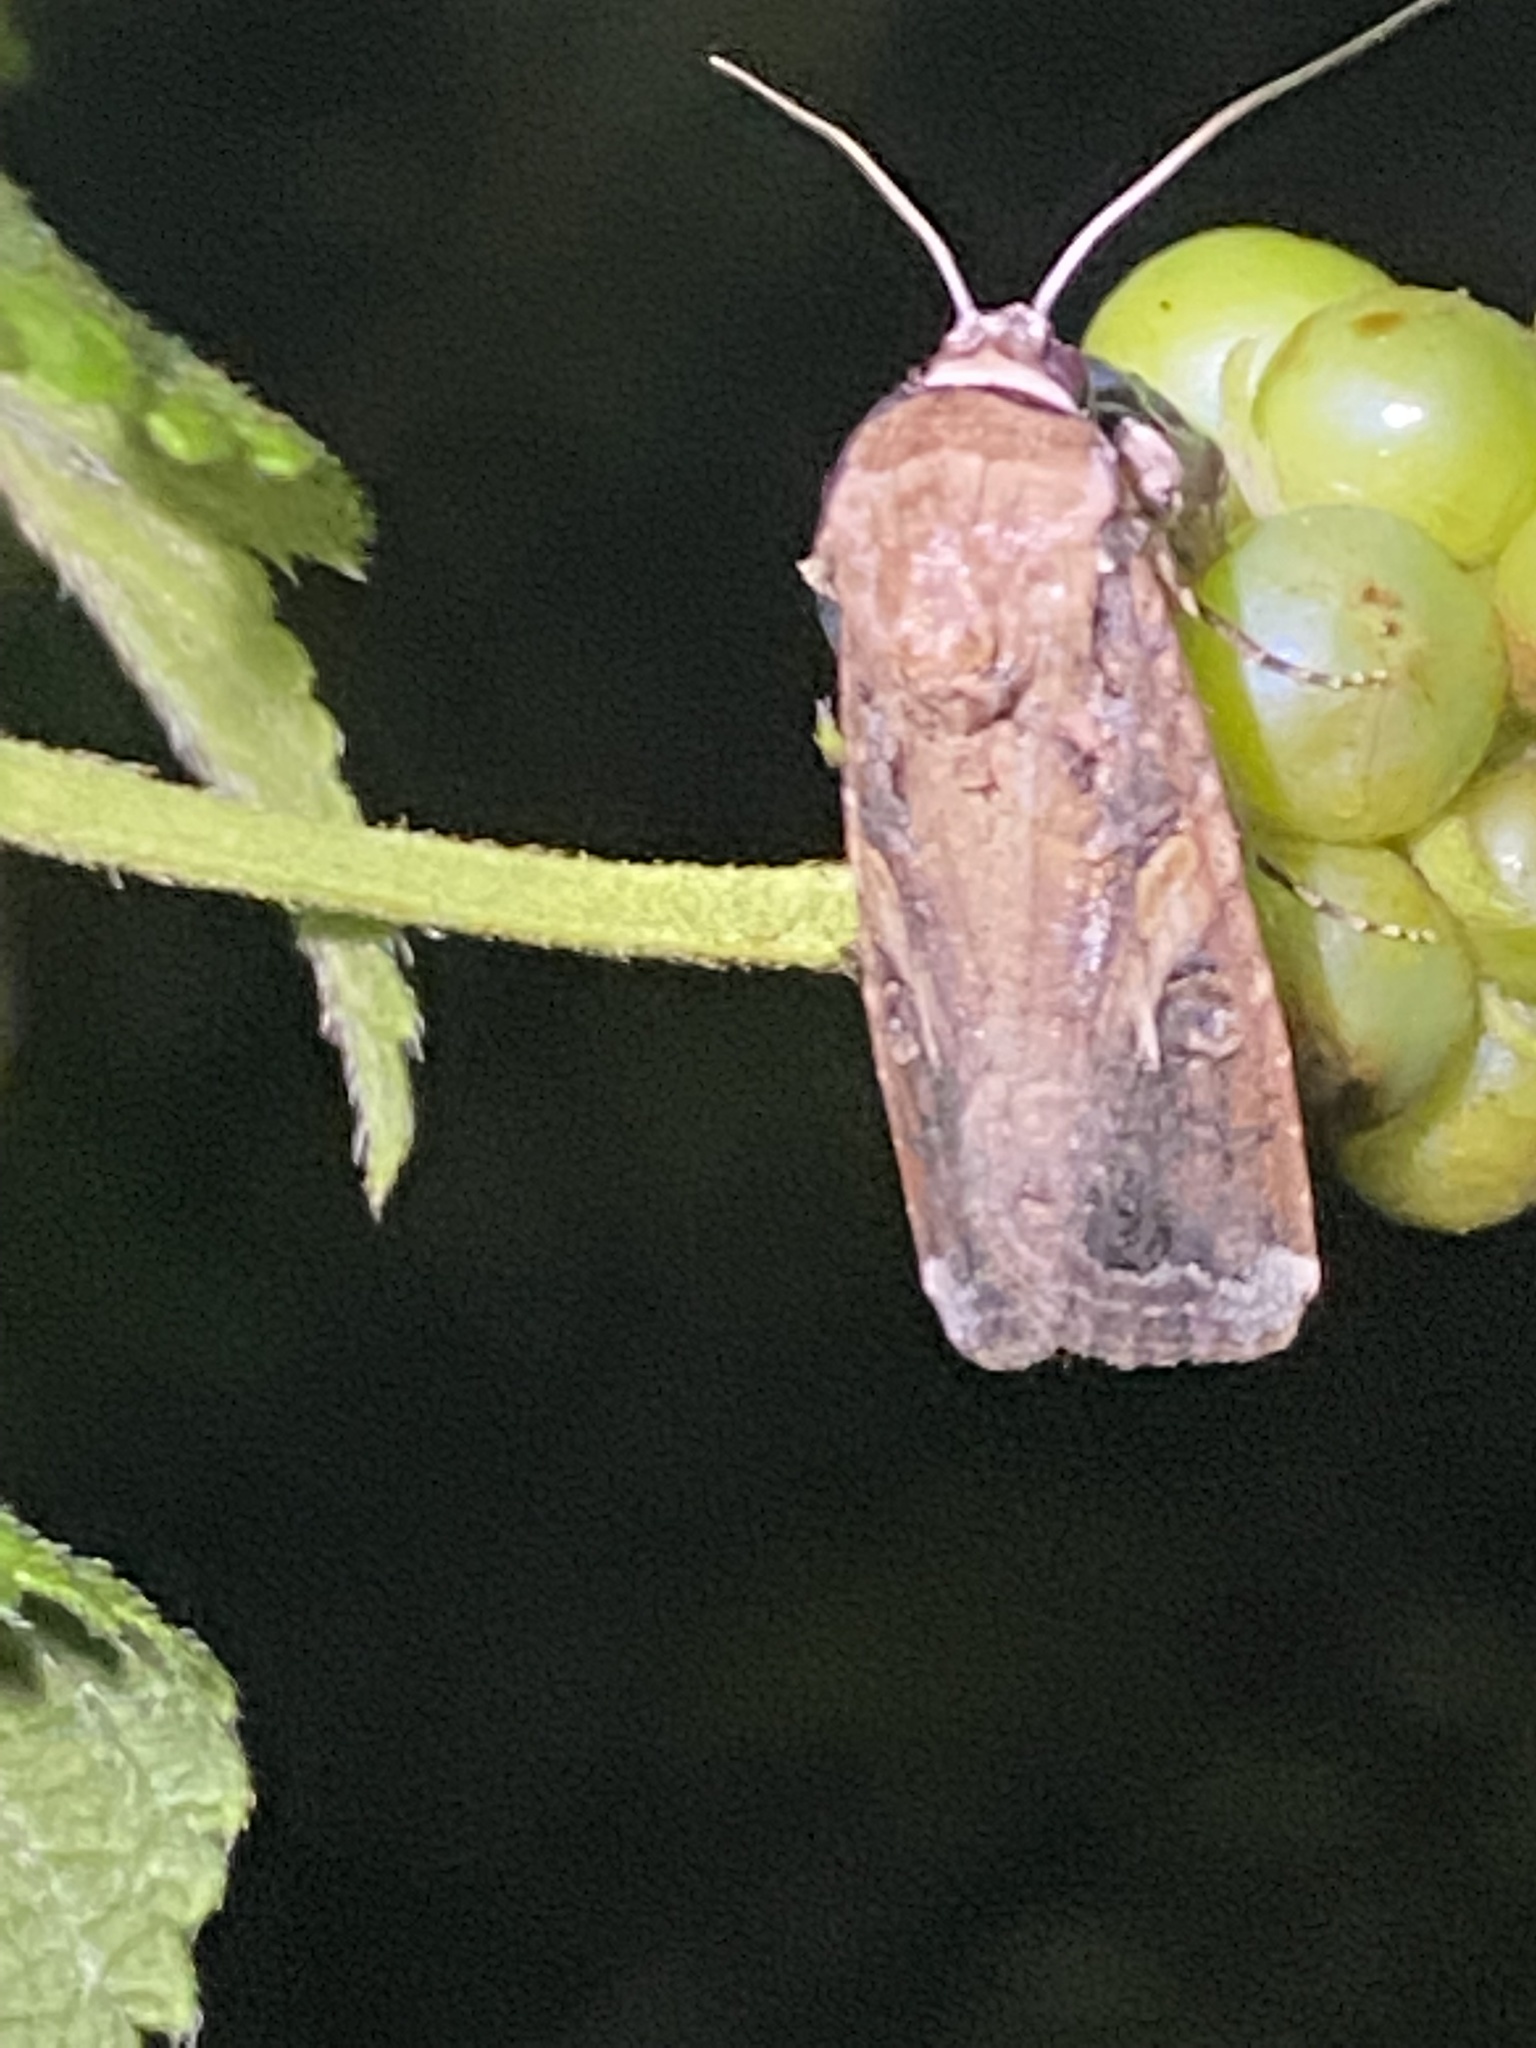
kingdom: Animalia
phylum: Arthropoda
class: Insecta
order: Lepidoptera
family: Noctuidae
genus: Spodoptera
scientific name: Spodoptera frugiperda
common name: Fall armyworm
